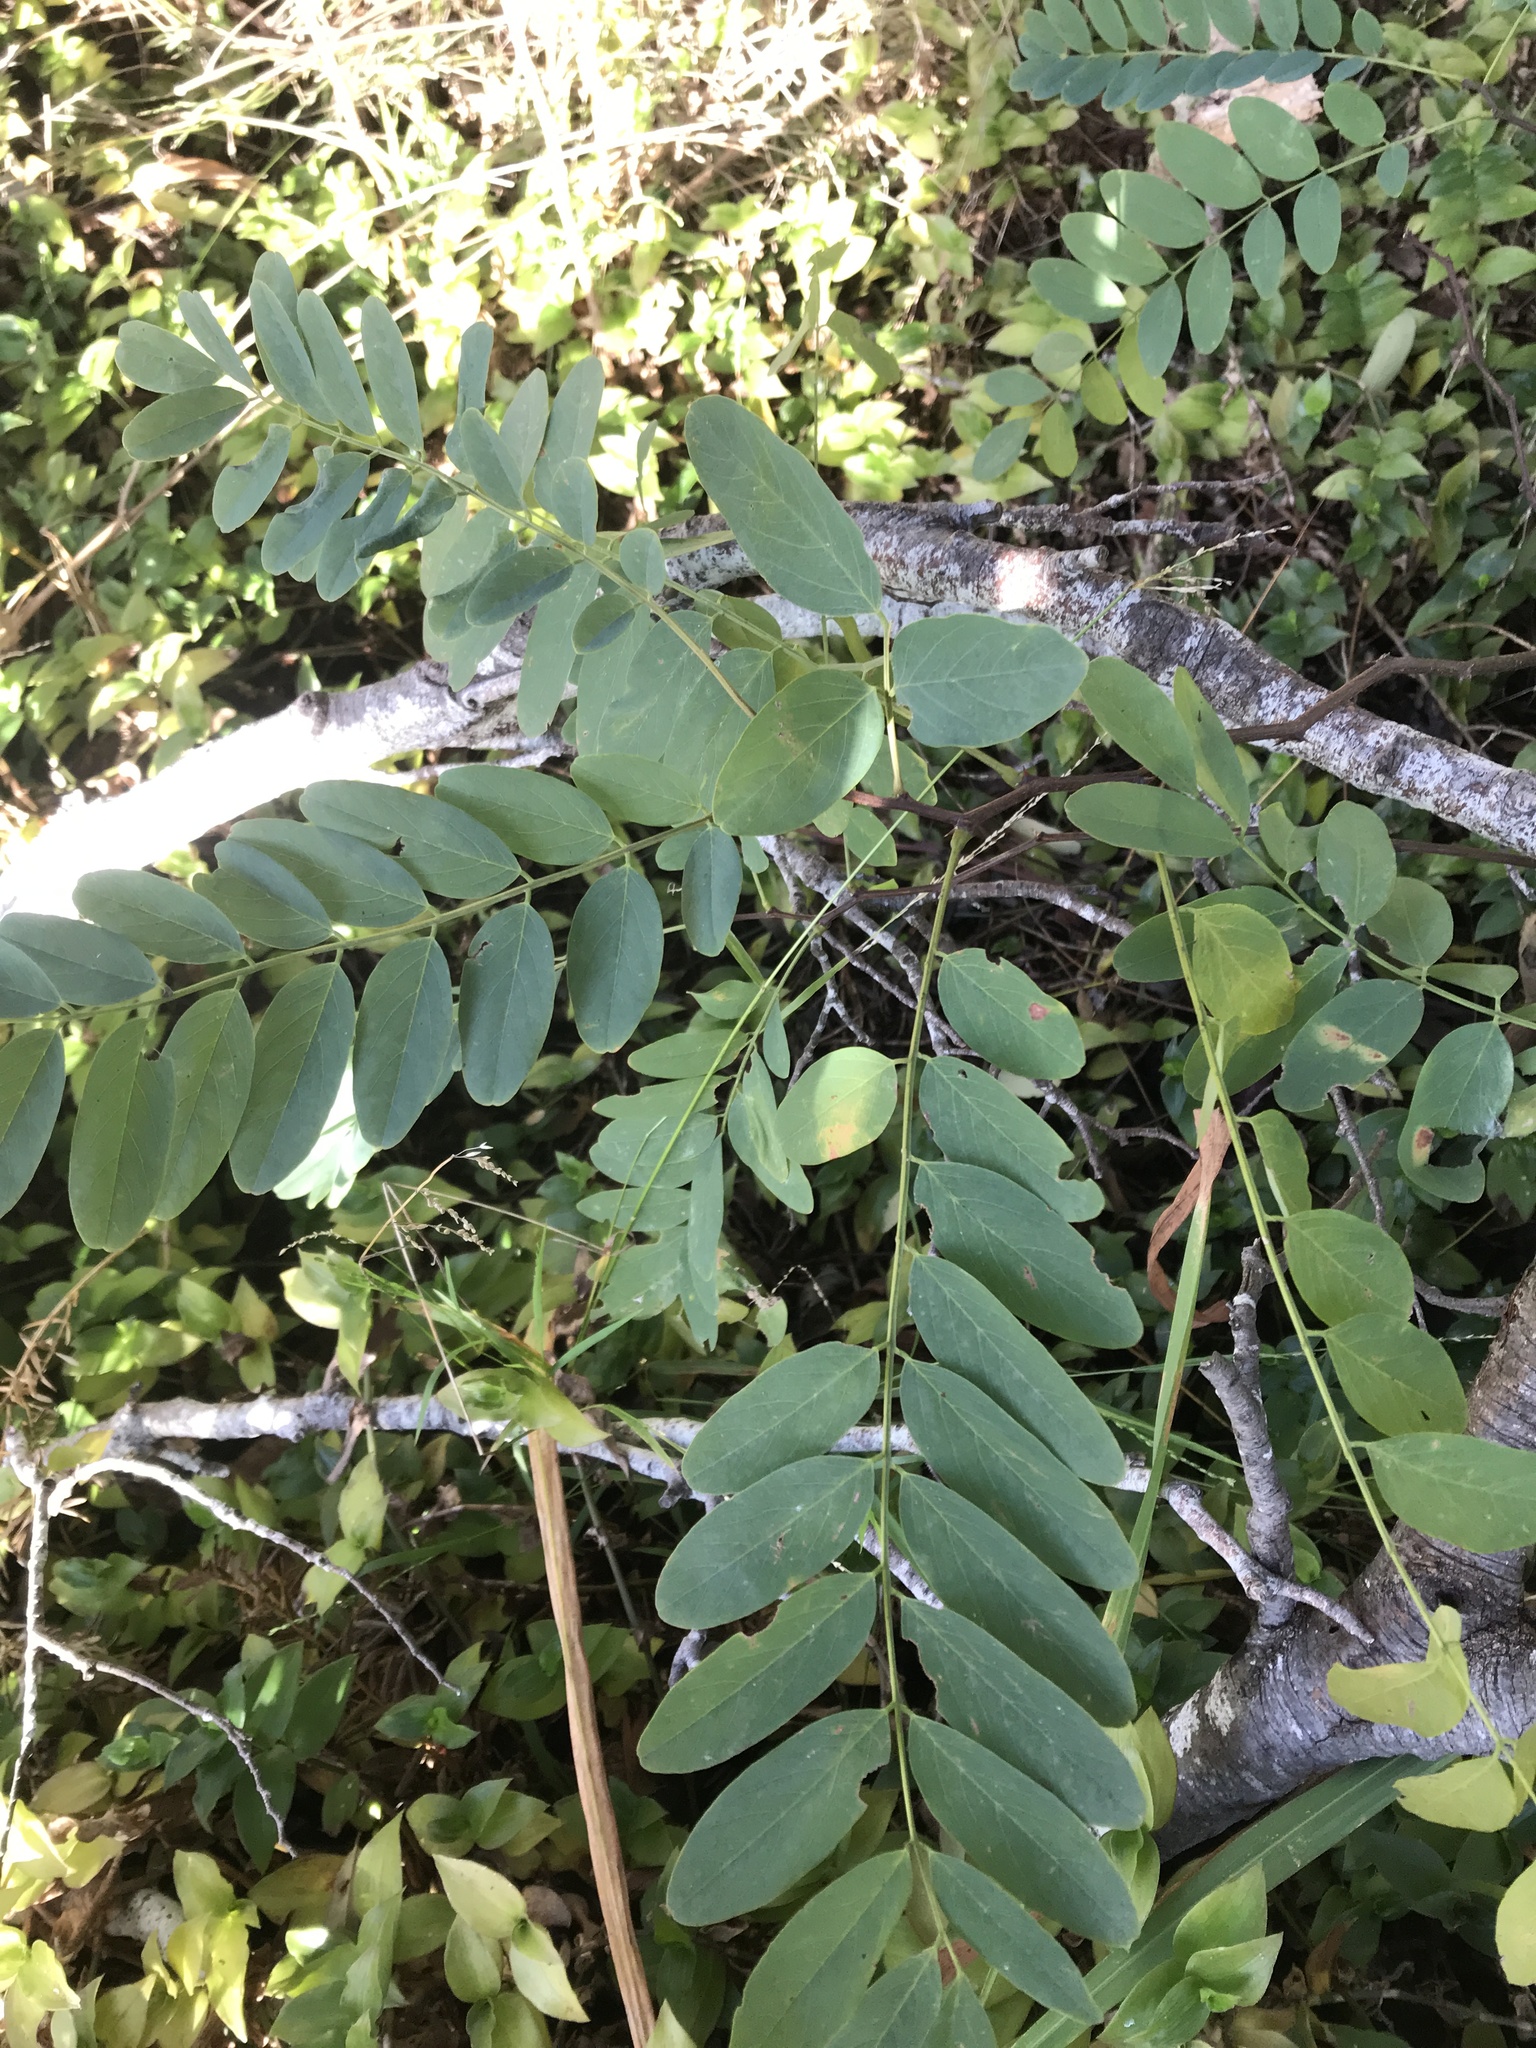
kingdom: Plantae
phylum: Tracheophyta
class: Magnoliopsida
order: Fabales
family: Fabaceae
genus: Robinia
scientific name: Robinia pseudoacacia
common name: Black locust
